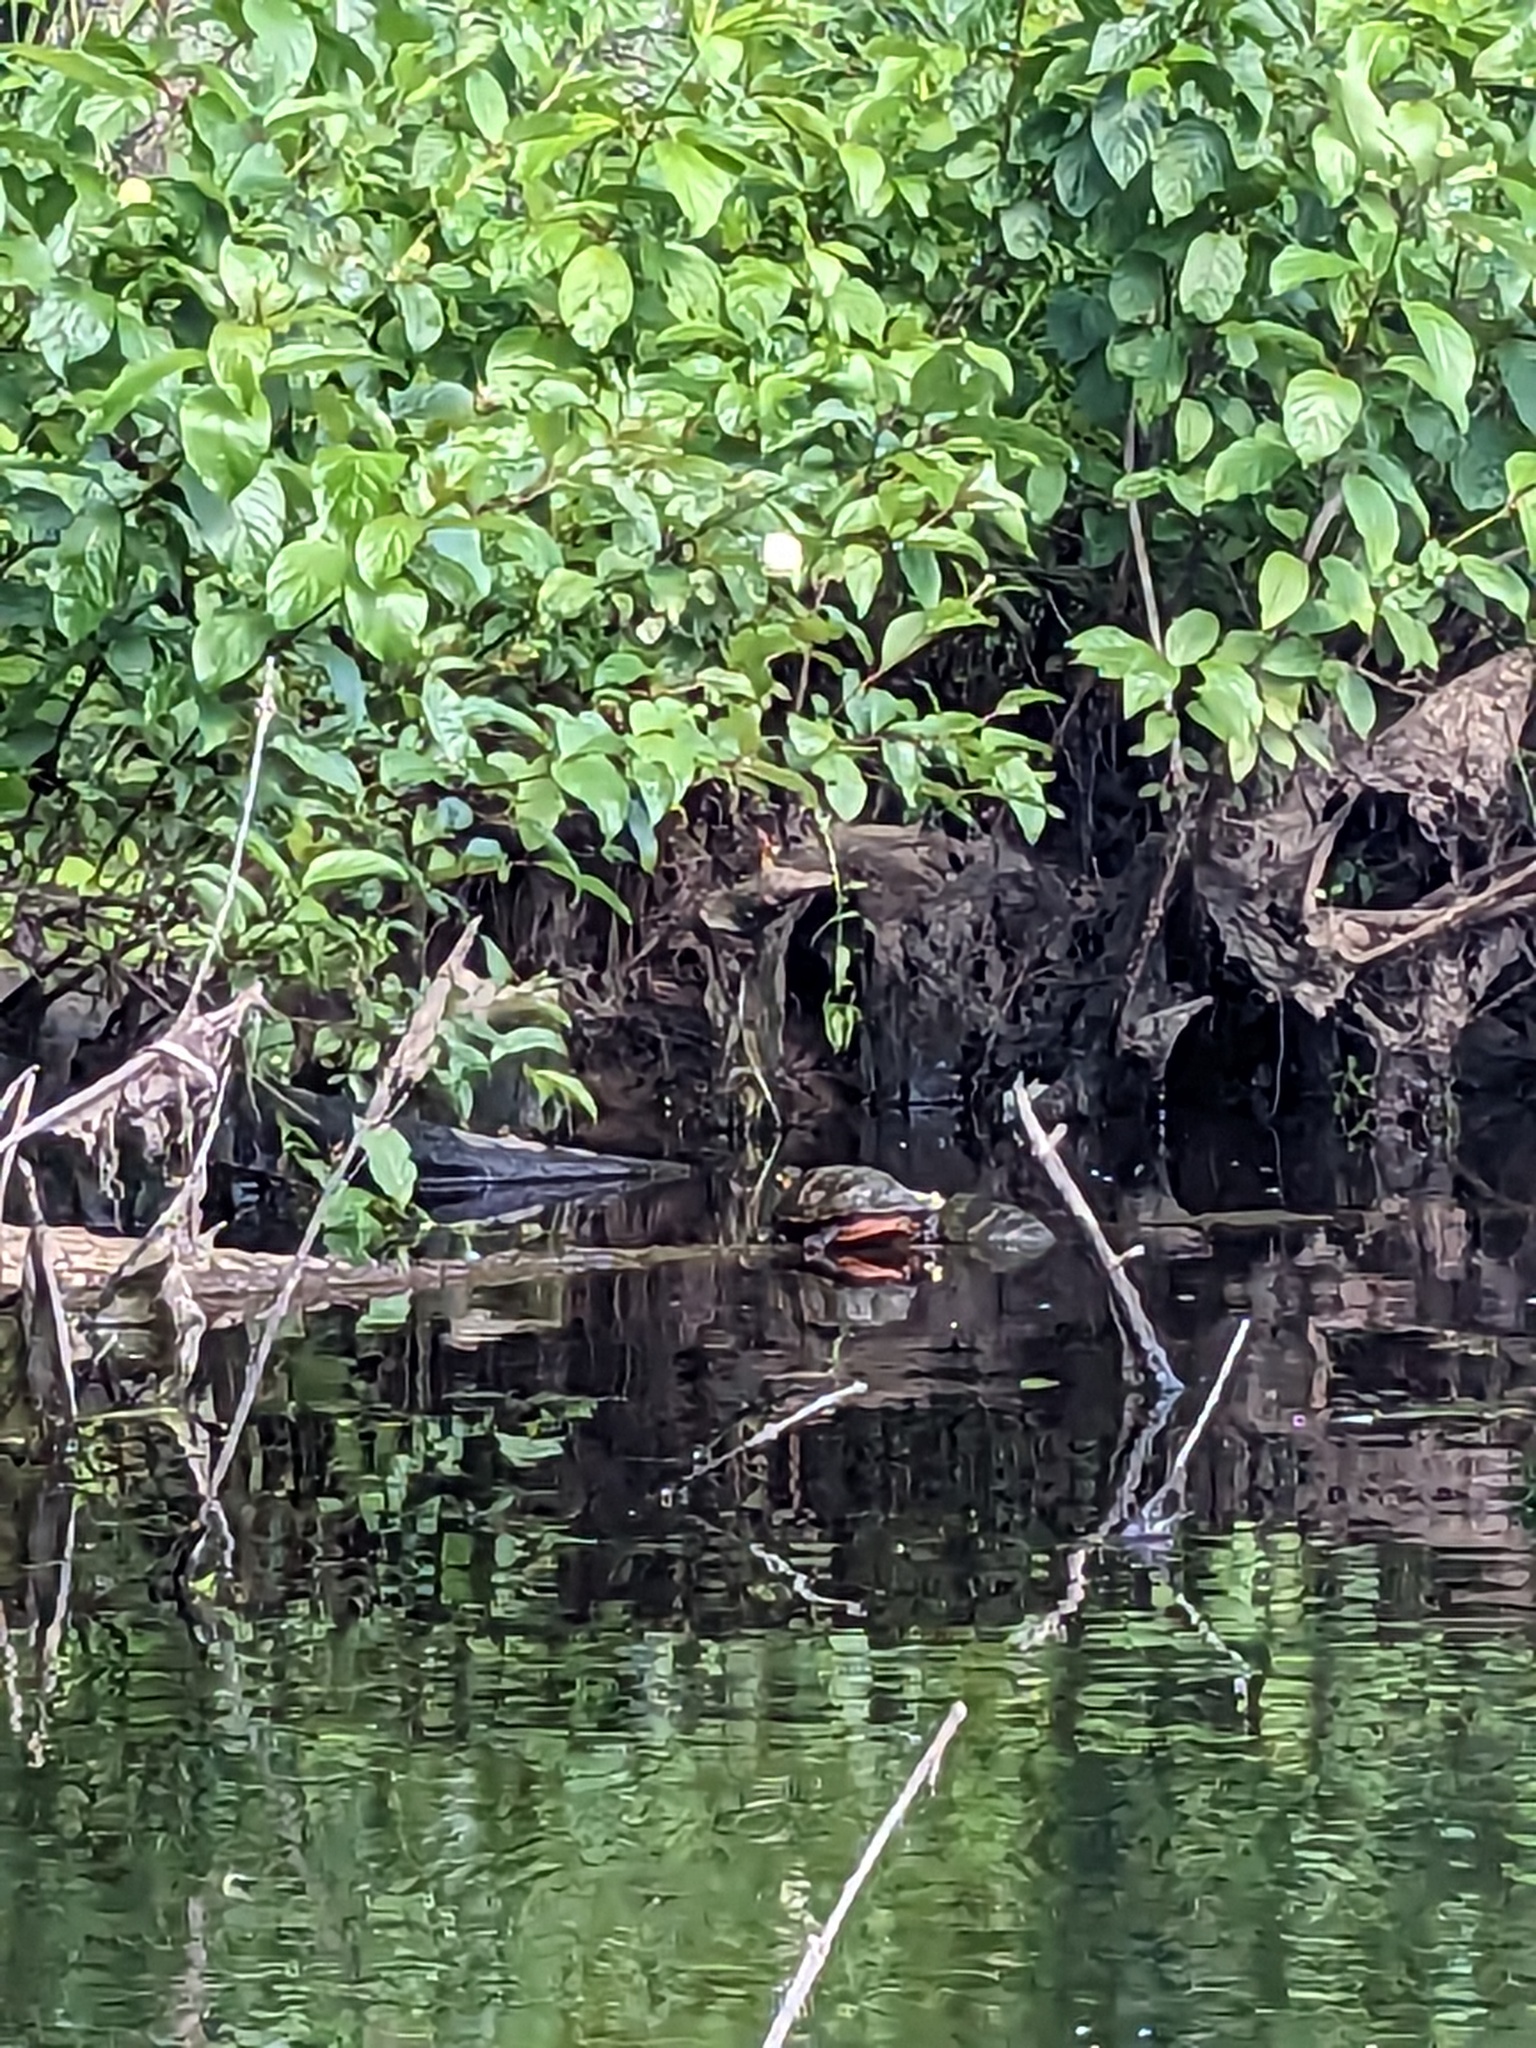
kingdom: Animalia
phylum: Chordata
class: Testudines
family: Emydidae
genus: Chrysemys
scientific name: Chrysemys picta
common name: Painted turtle
